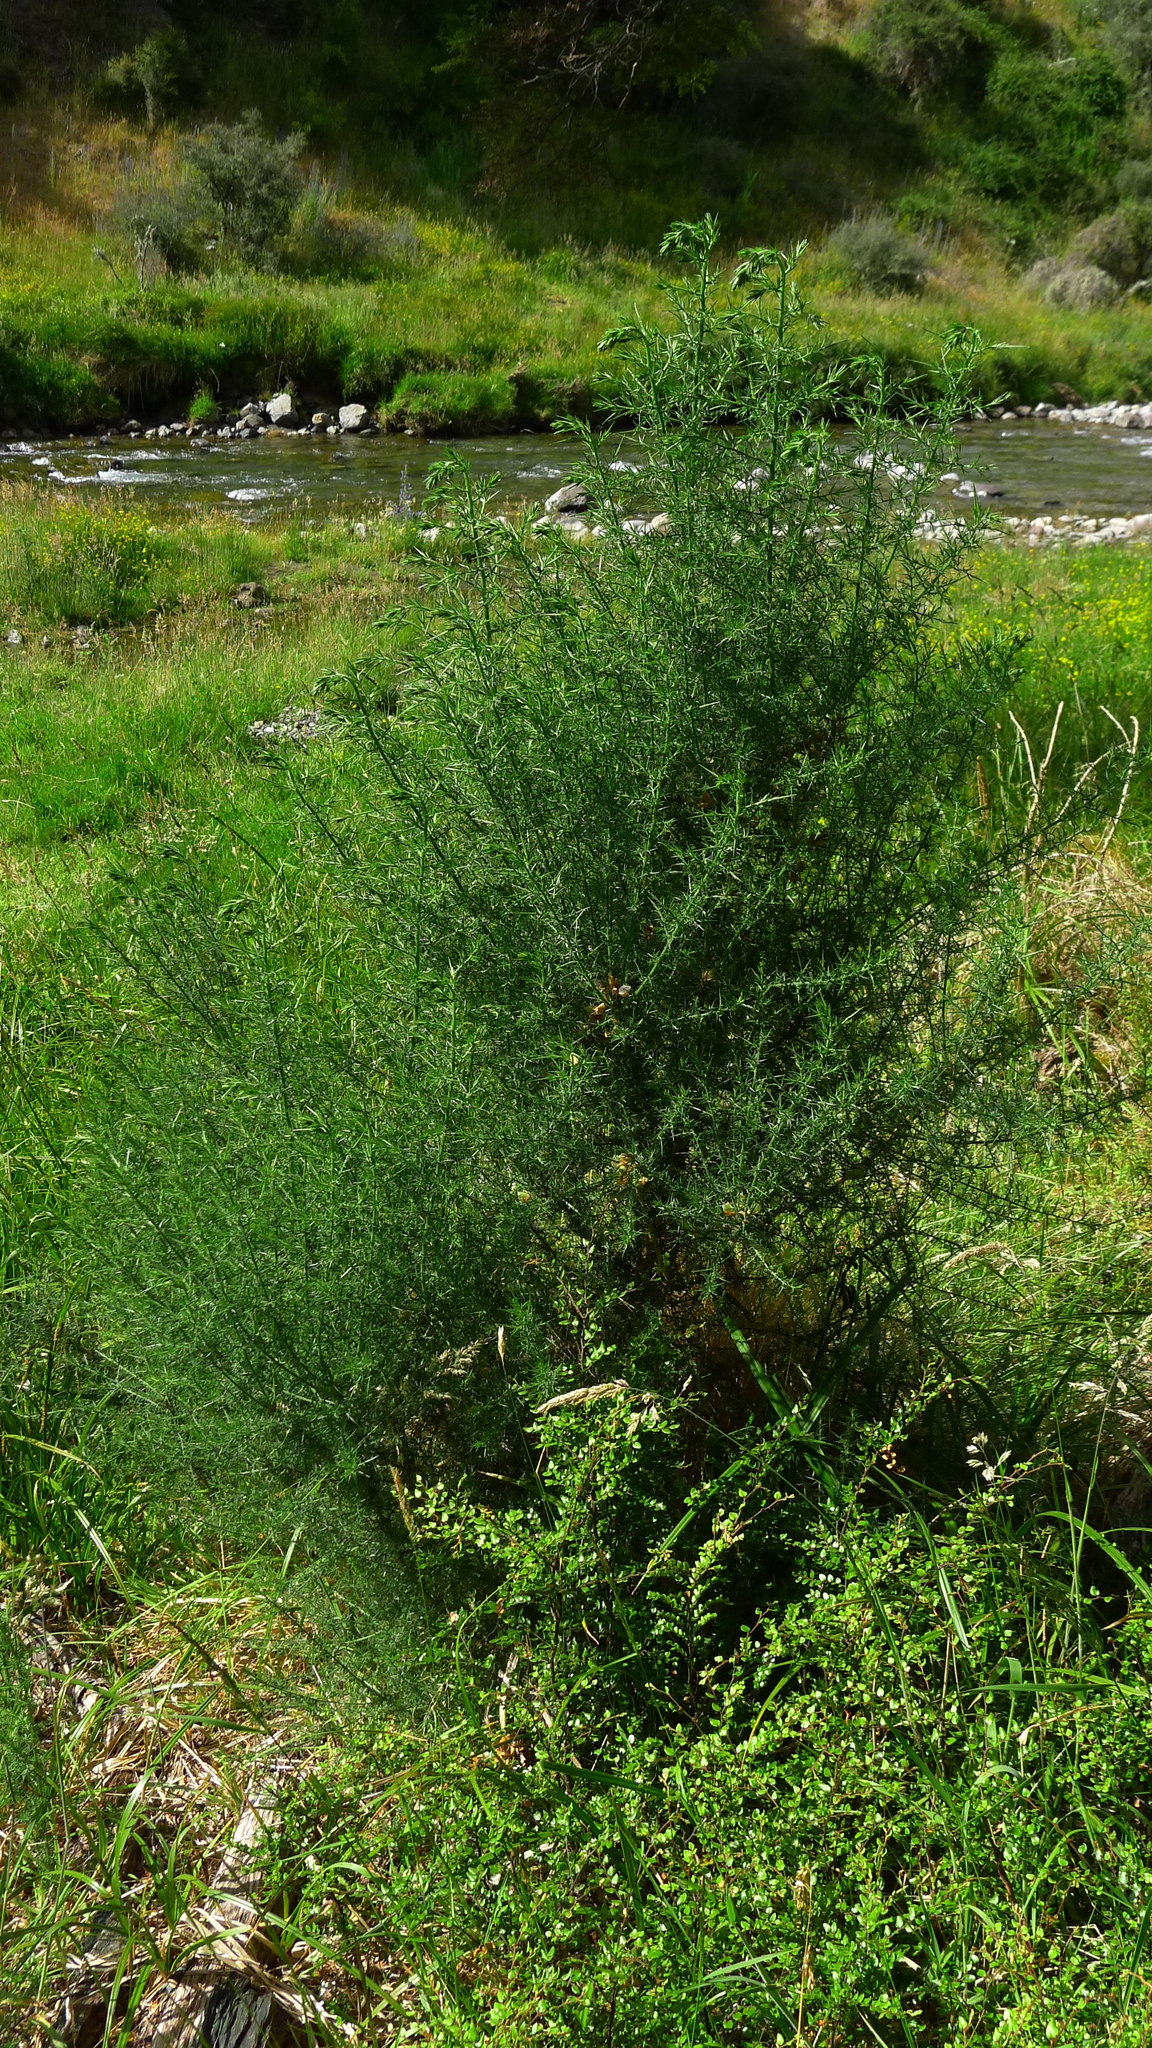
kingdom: Plantae
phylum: Tracheophyta
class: Magnoliopsida
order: Fabales
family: Fabaceae
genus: Ulex
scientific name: Ulex europaeus
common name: Common gorse
